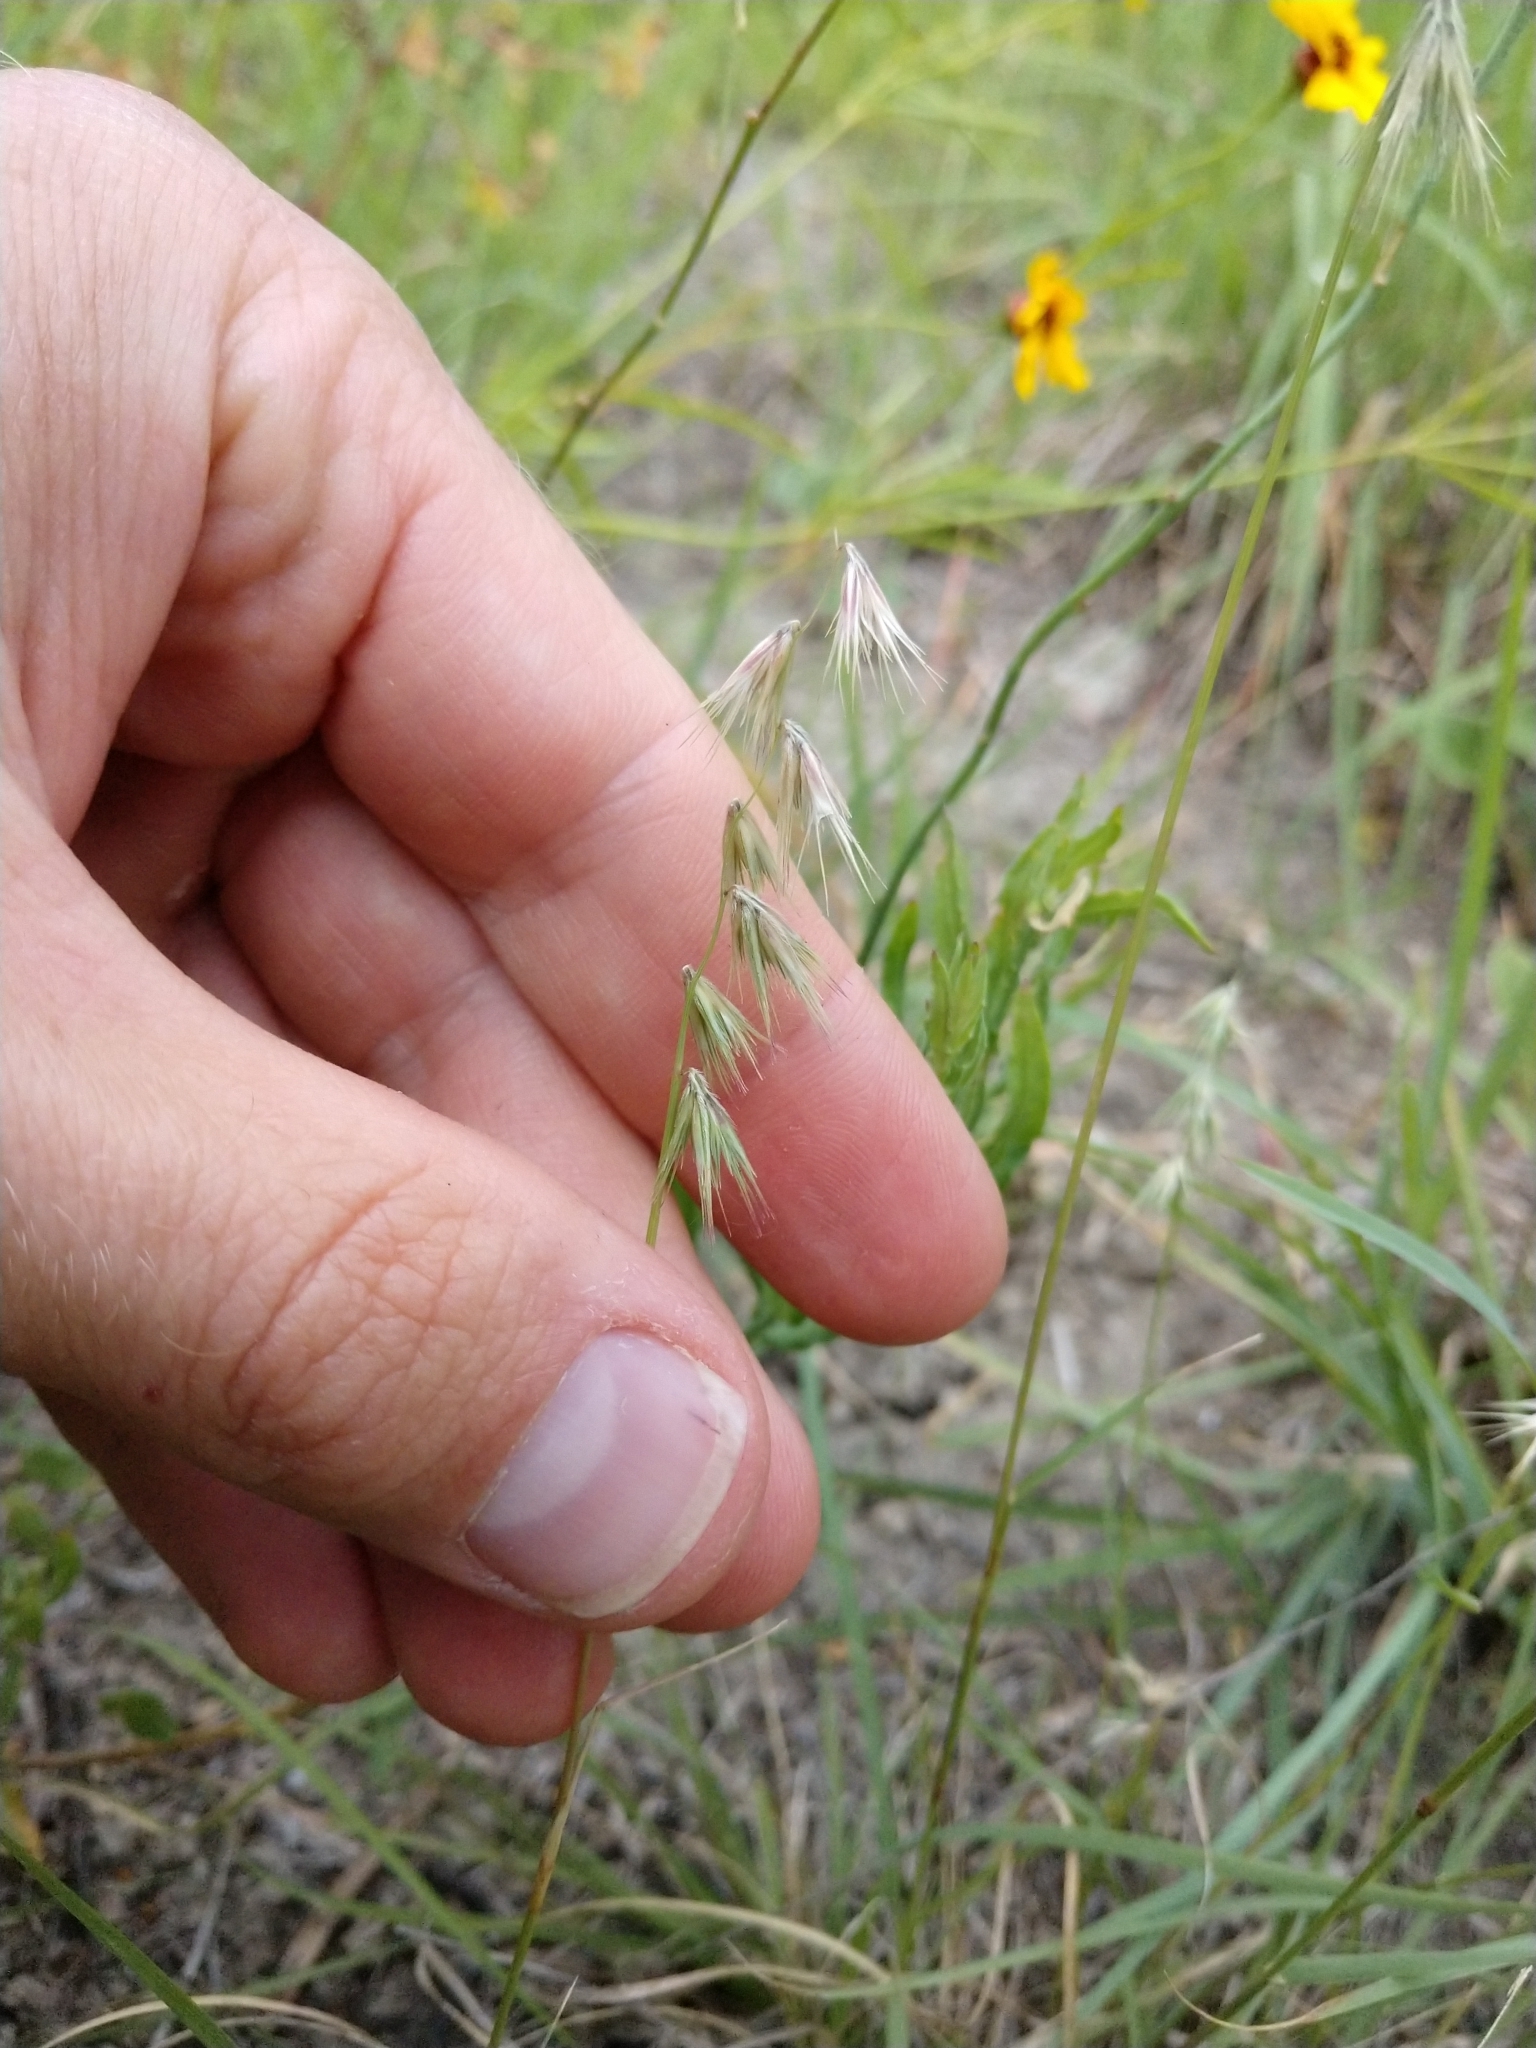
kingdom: Plantae
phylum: Tracheophyta
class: Liliopsida
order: Poales
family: Poaceae
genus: Bouteloua
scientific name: Bouteloua rigidiseta
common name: Texas grama
